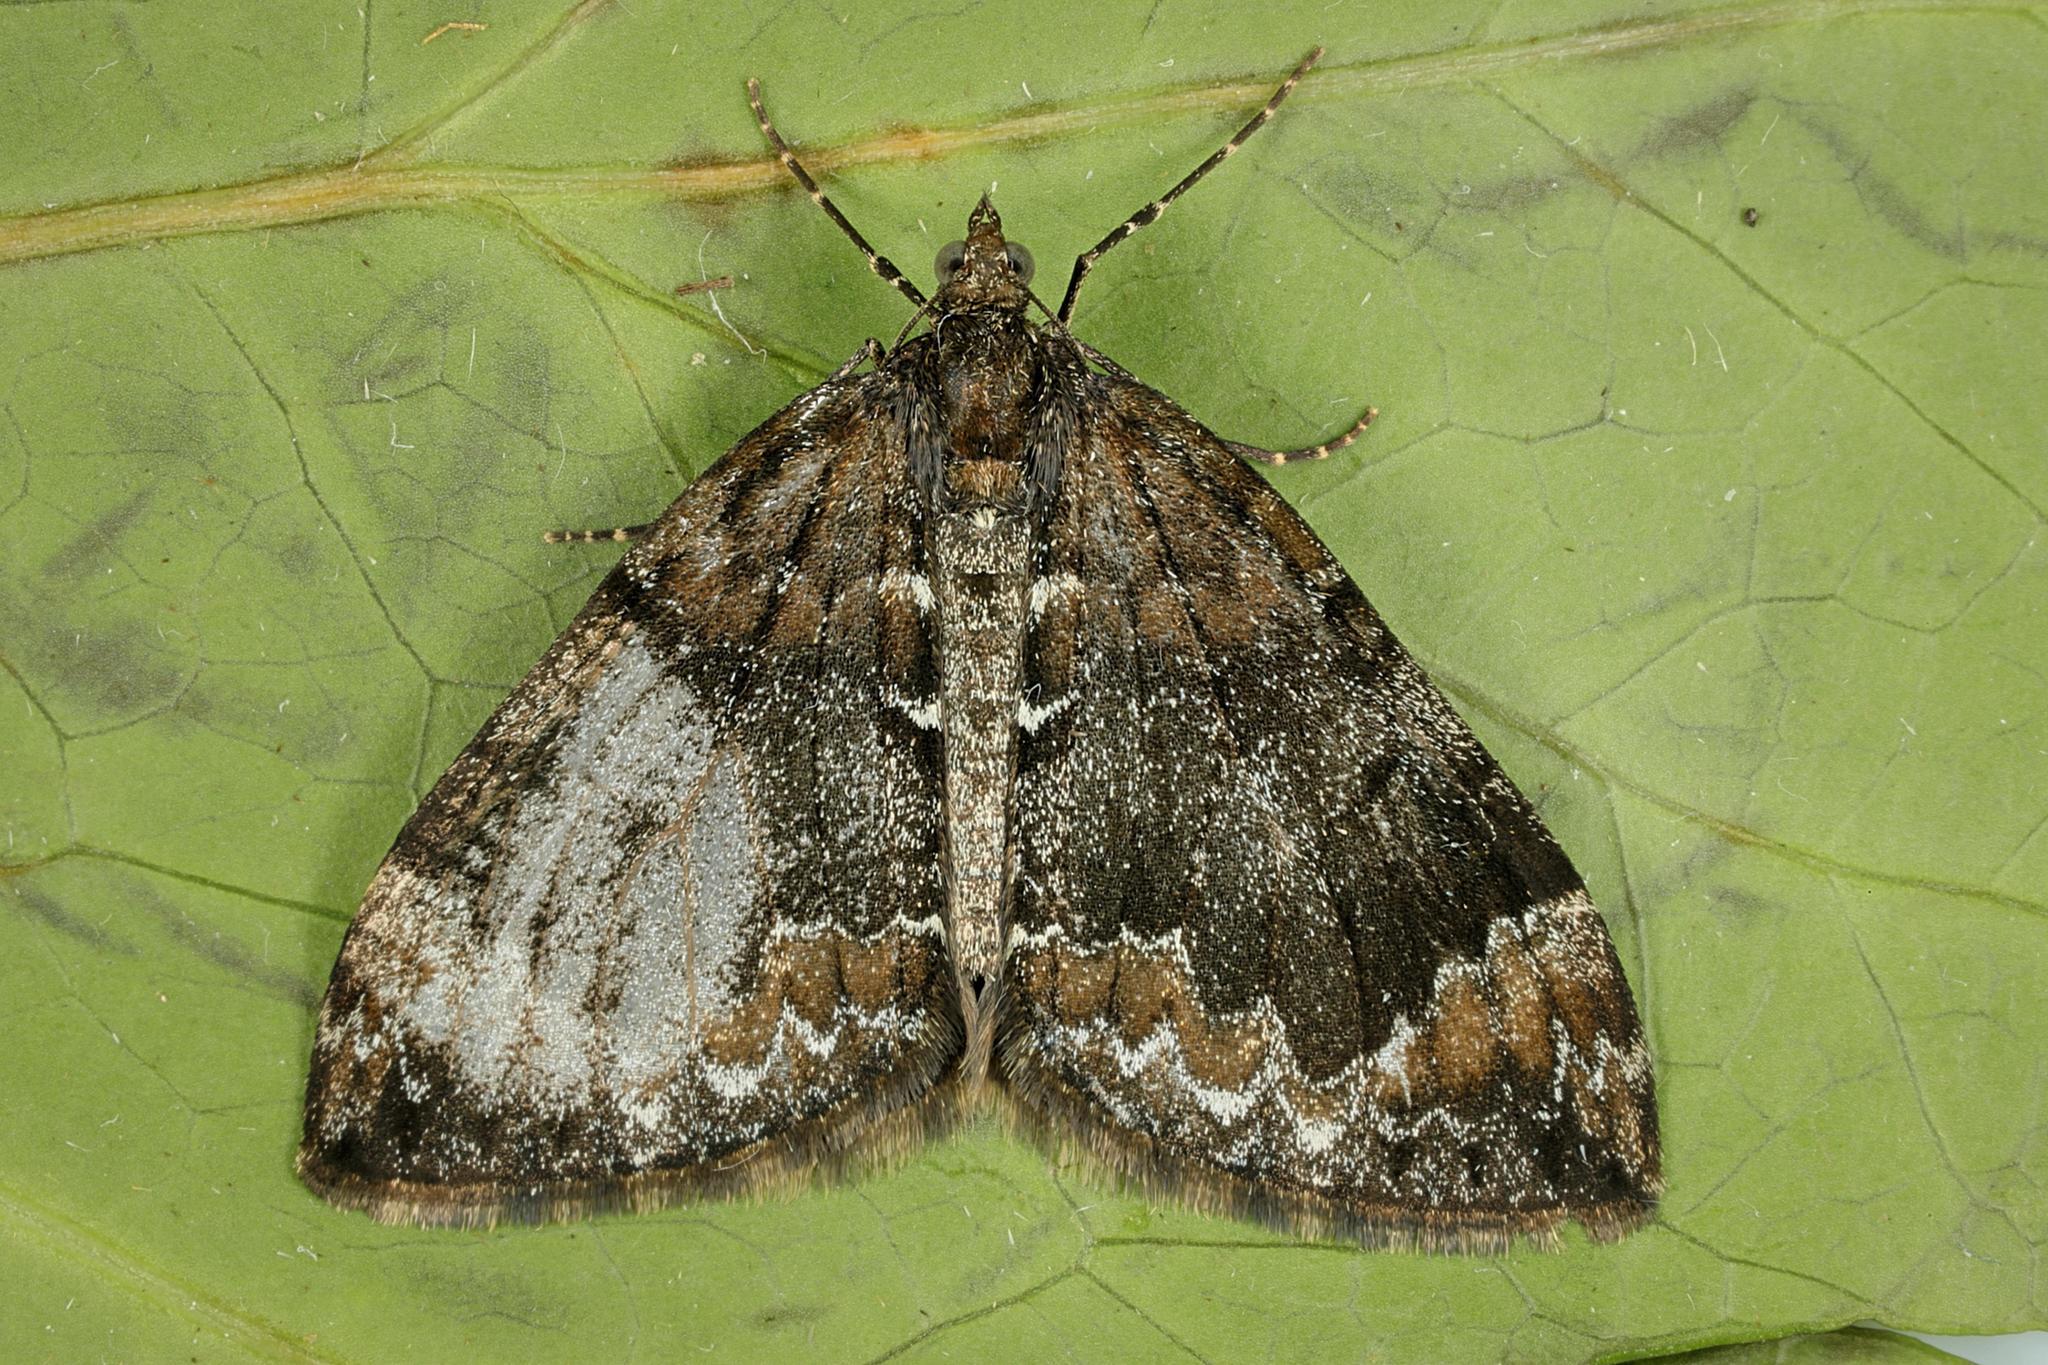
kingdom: Animalia
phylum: Arthropoda
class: Insecta
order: Lepidoptera
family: Geometridae
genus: Dysstroma
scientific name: Dysstroma truncata
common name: Common marbled carpet
